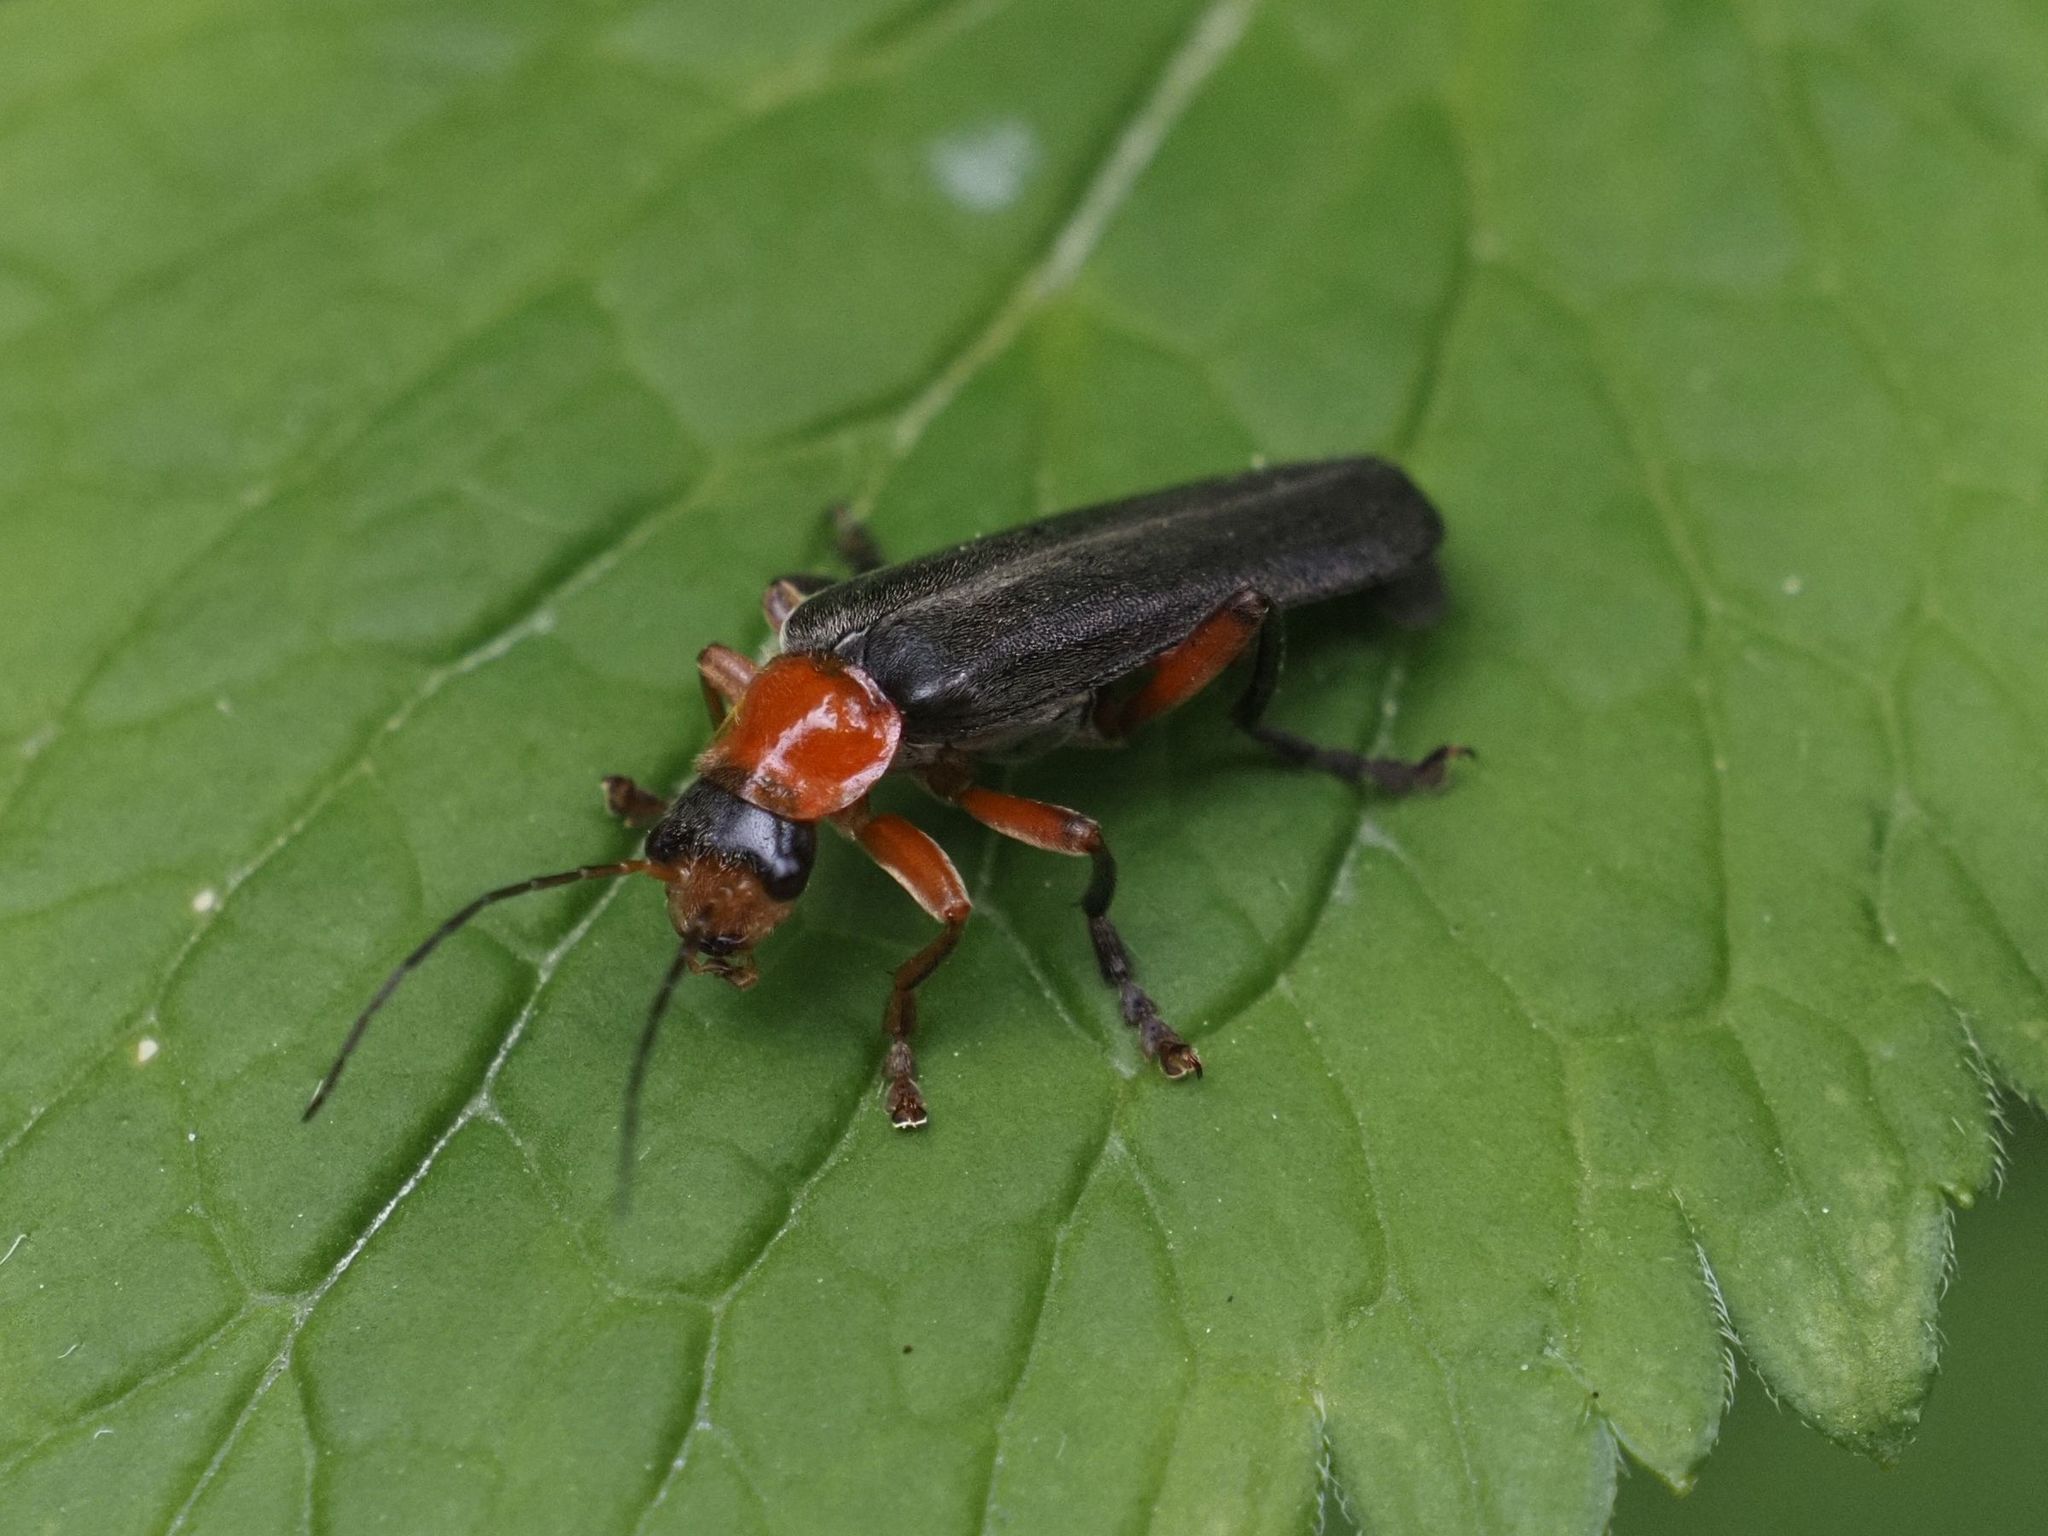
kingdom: Animalia
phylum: Arthropoda
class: Insecta
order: Coleoptera
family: Cantharidae
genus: Cantharis
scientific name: Cantharis pellucida
